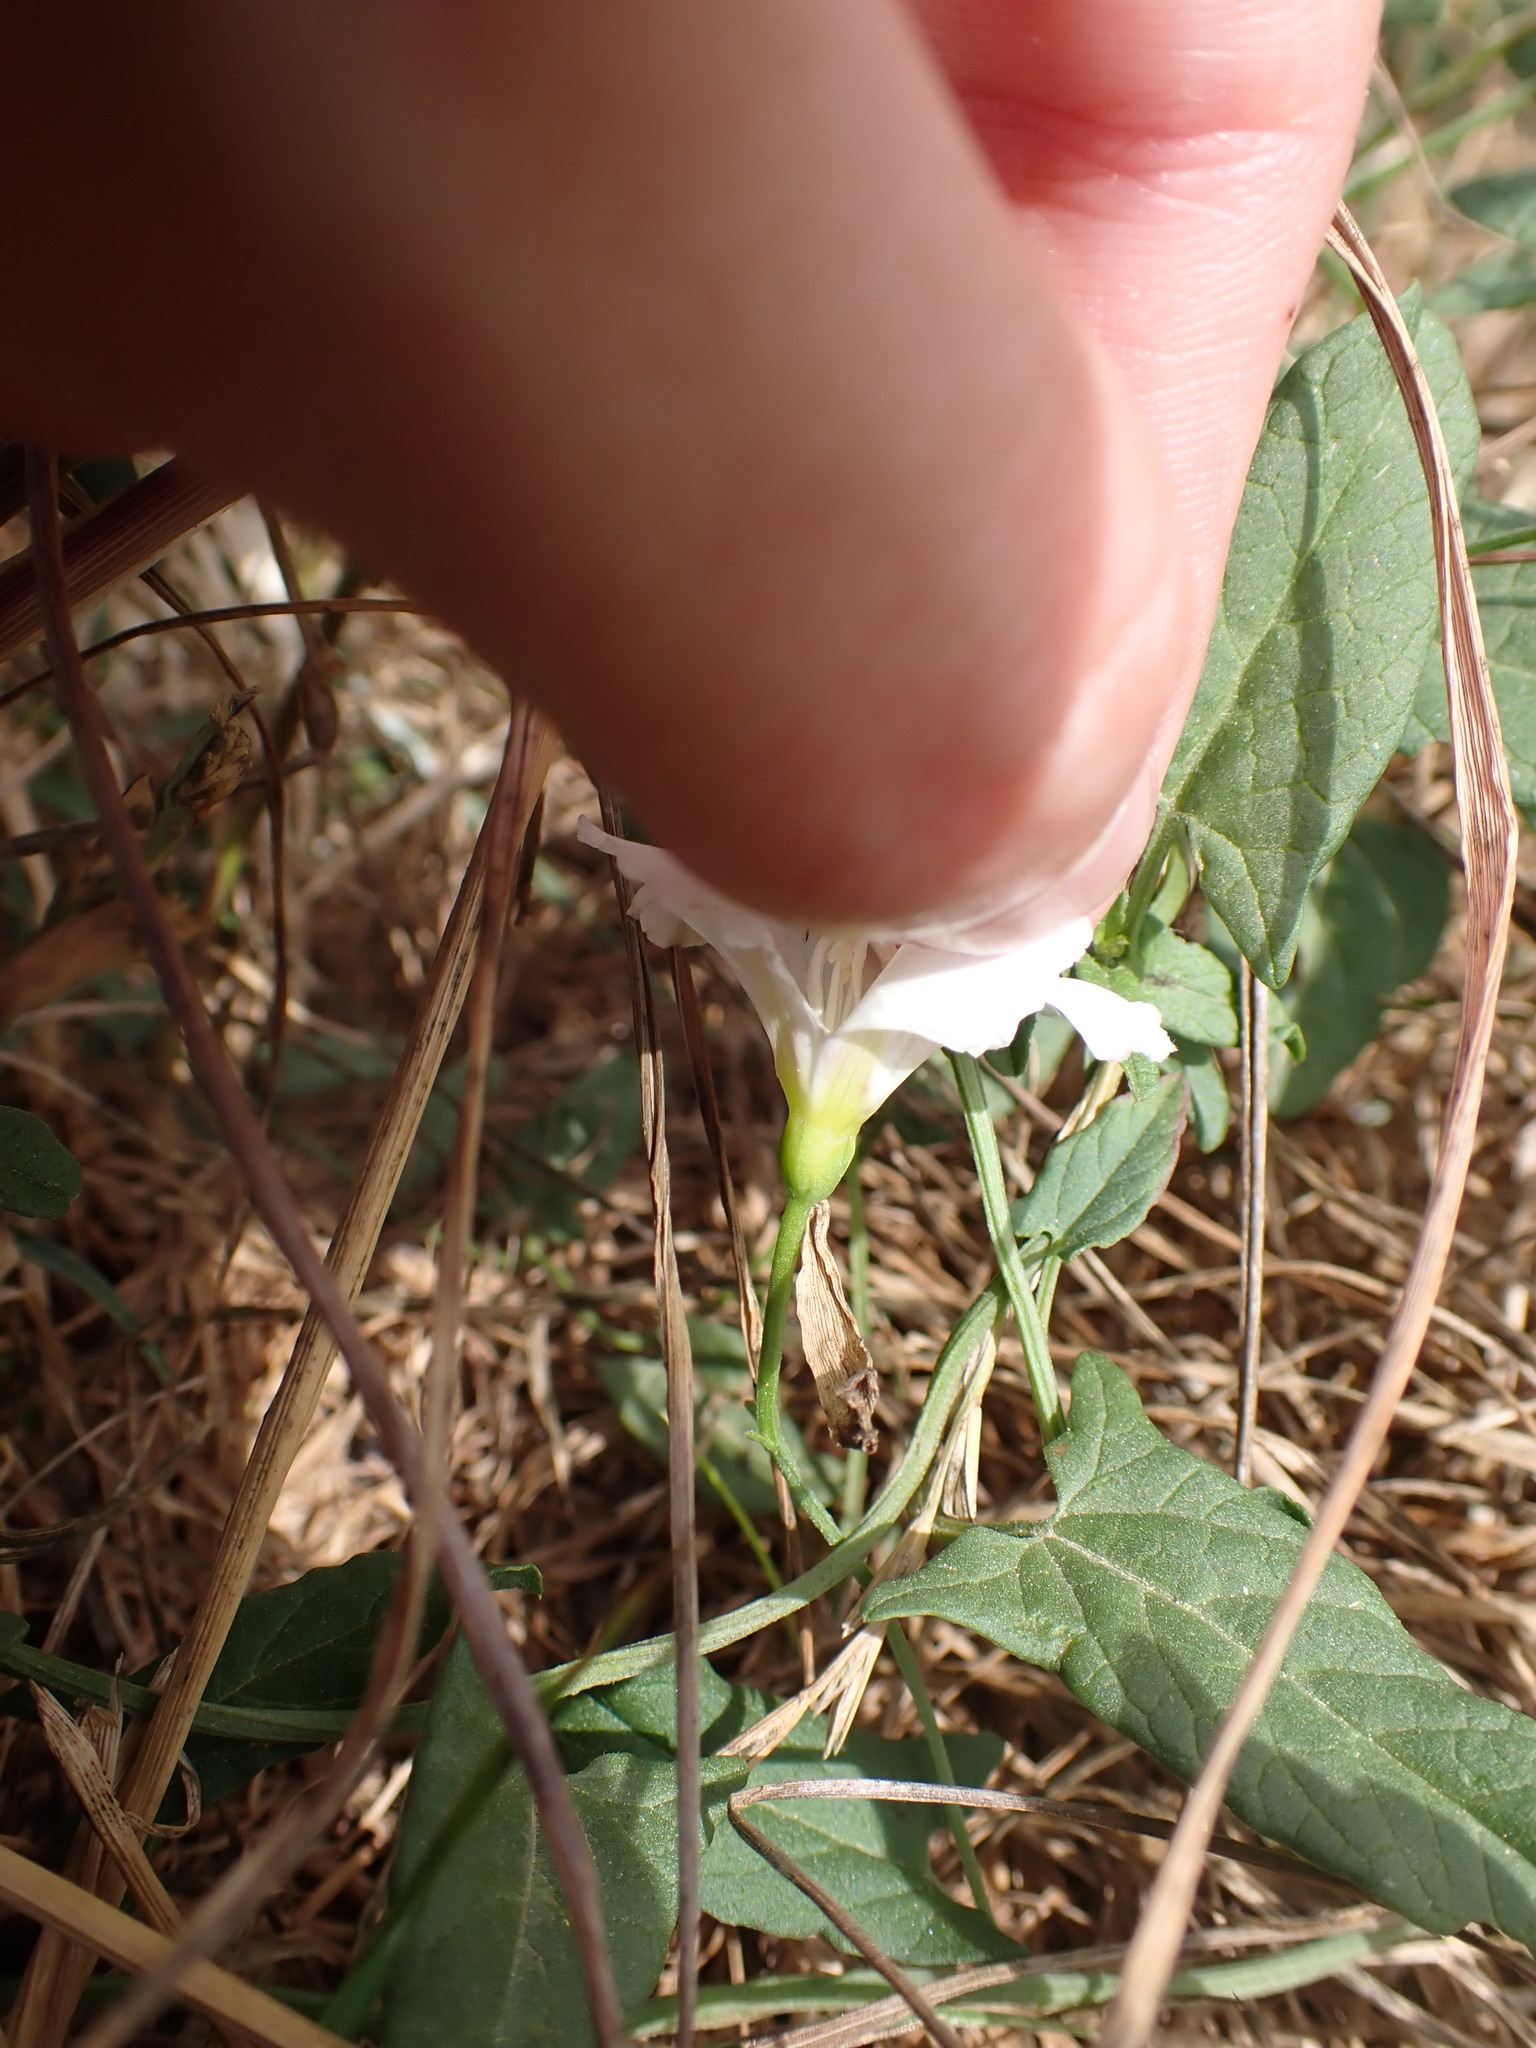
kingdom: Plantae
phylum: Tracheophyta
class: Magnoliopsida
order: Solanales
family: Convolvulaceae
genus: Convolvulus
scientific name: Convolvulus arvensis
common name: Field bindweed
